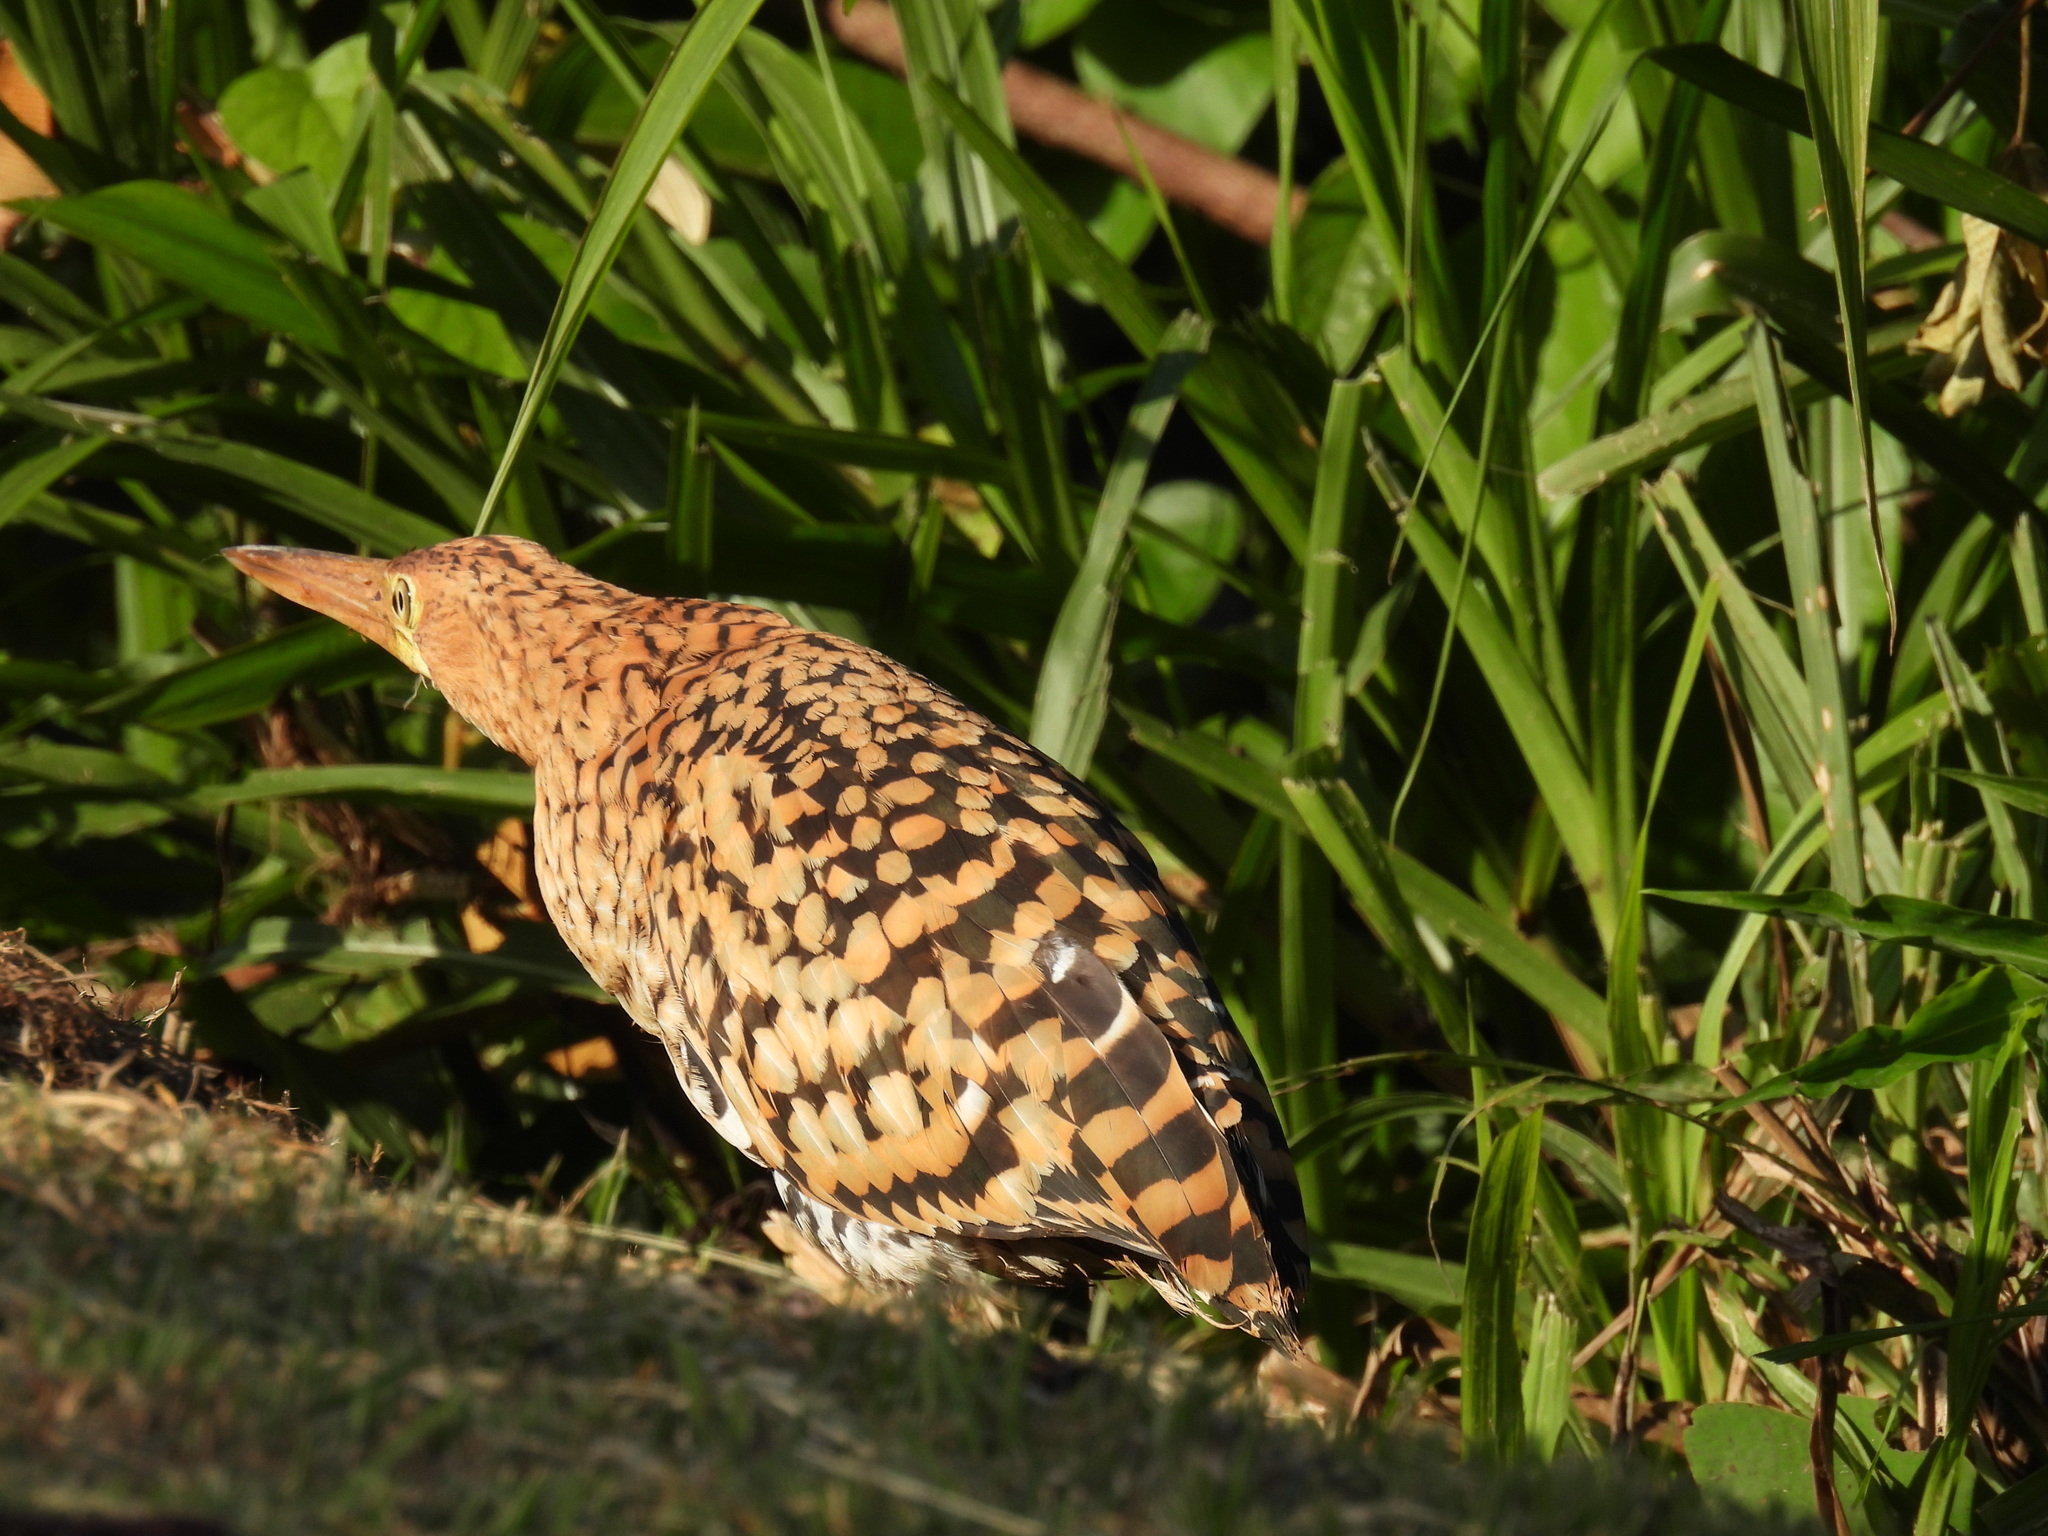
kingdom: Animalia
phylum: Chordata
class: Aves
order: Pelecaniformes
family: Ardeidae
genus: Tigrisoma
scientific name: Tigrisoma lineatum
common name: Rufescent tiger-heron
